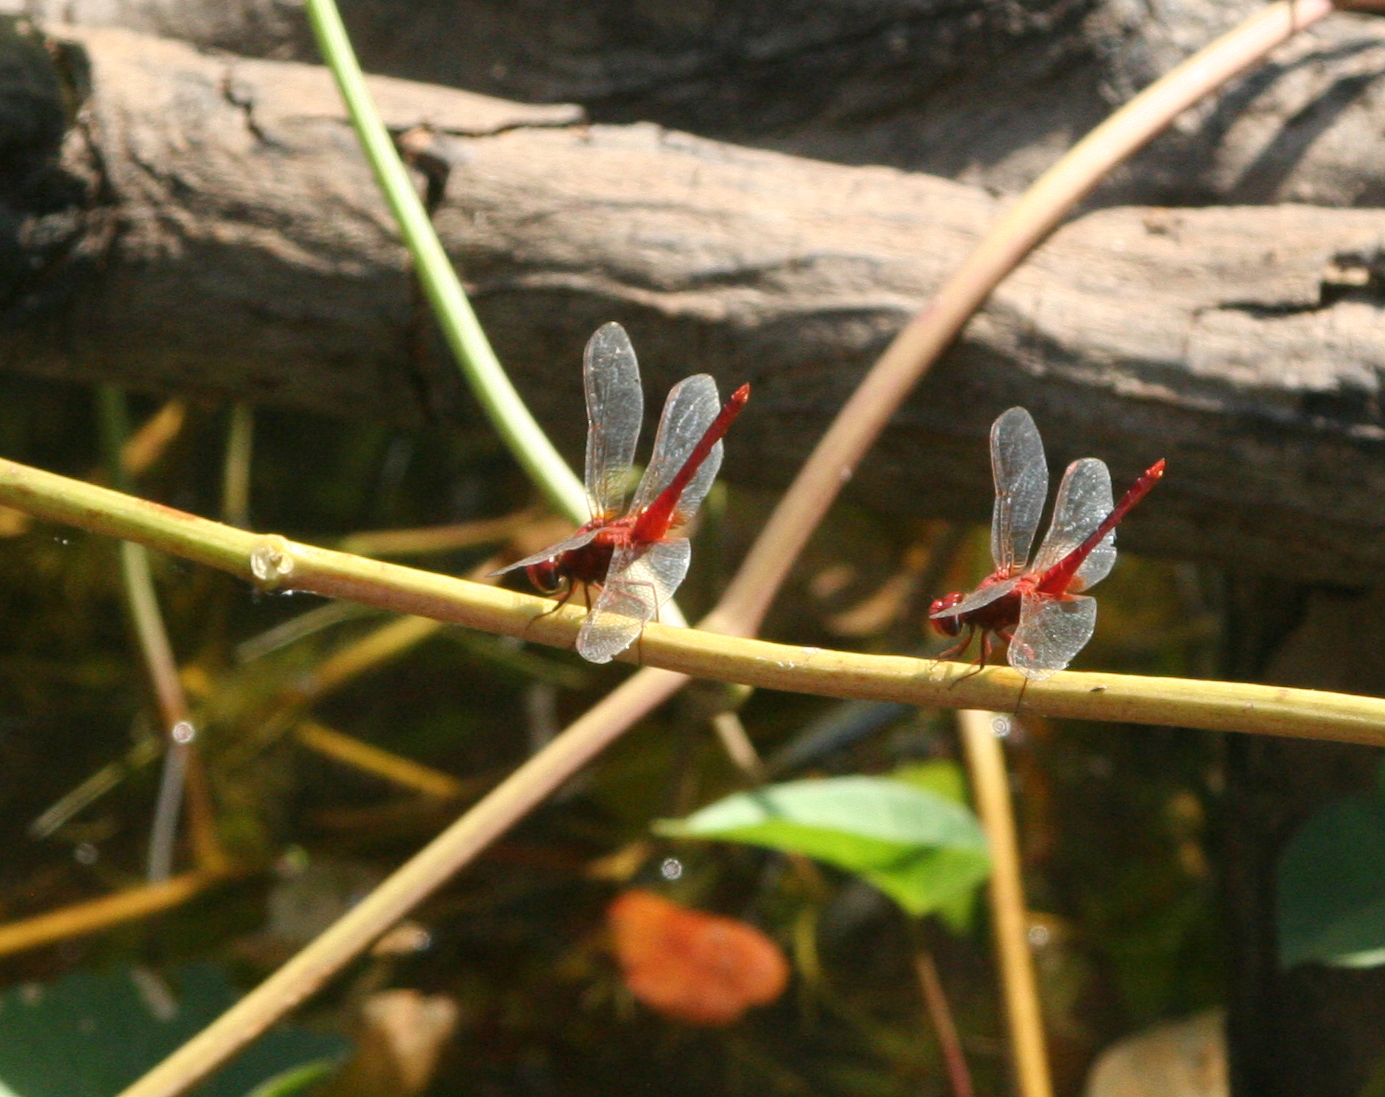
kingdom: Animalia
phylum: Arthropoda
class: Insecta
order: Odonata
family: Libellulidae
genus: Crocothemis
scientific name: Crocothemis servilia
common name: Scarlet skimmer
